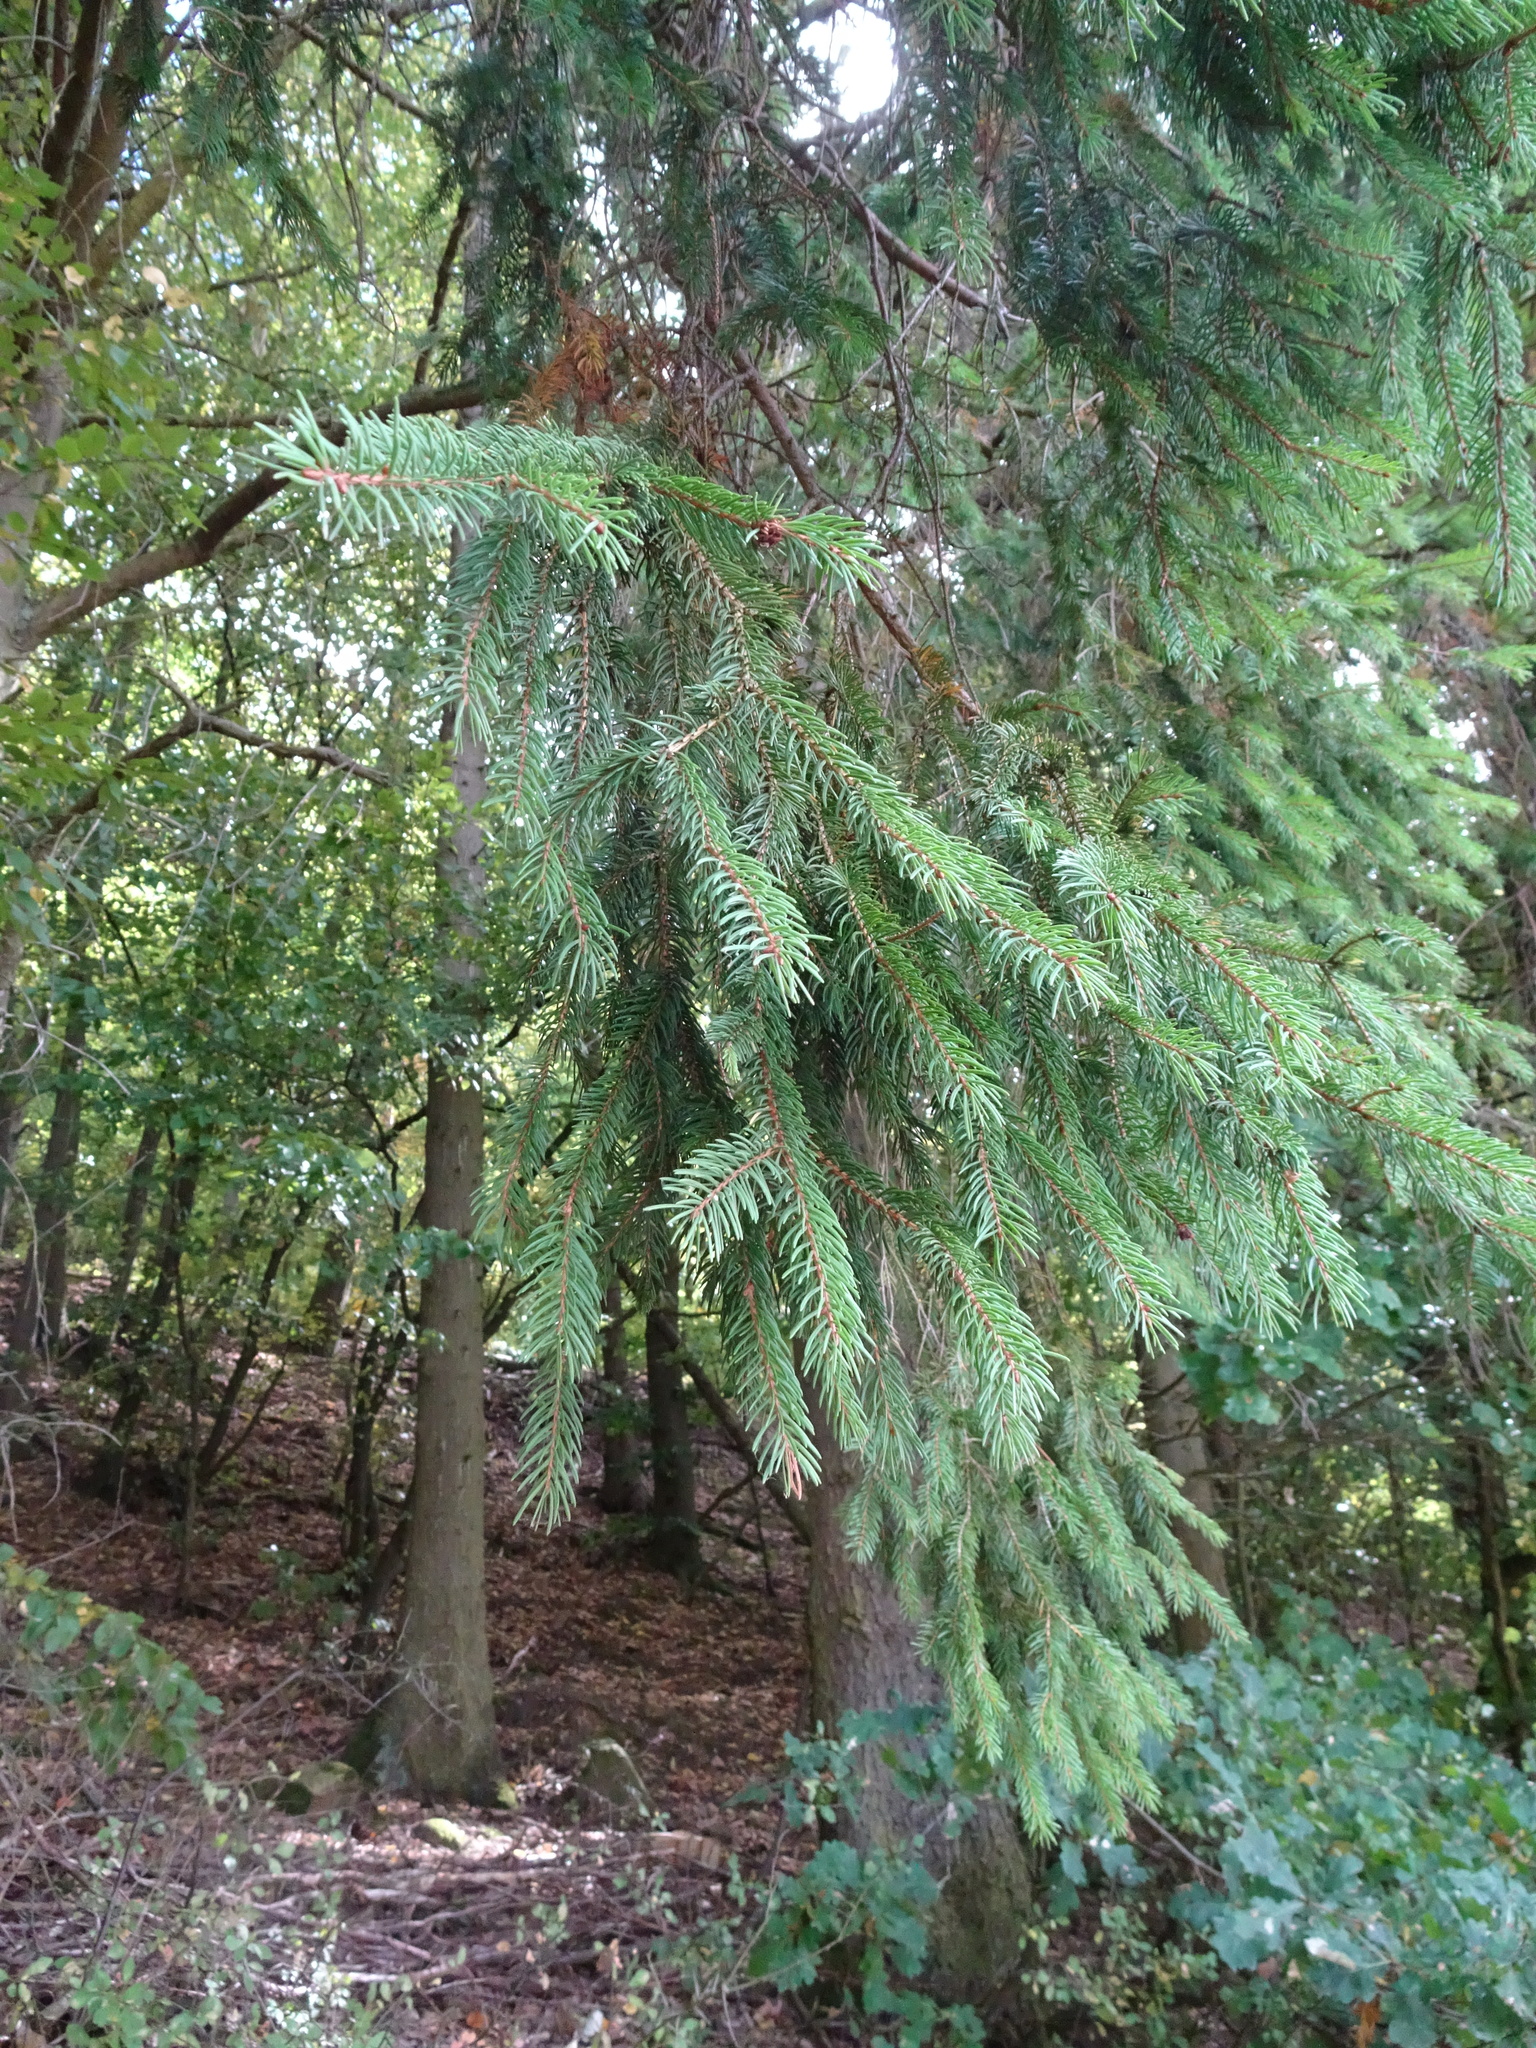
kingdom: Plantae
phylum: Tracheophyta
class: Pinopsida
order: Pinales
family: Pinaceae
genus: Picea
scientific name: Picea abies
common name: Norway spruce
